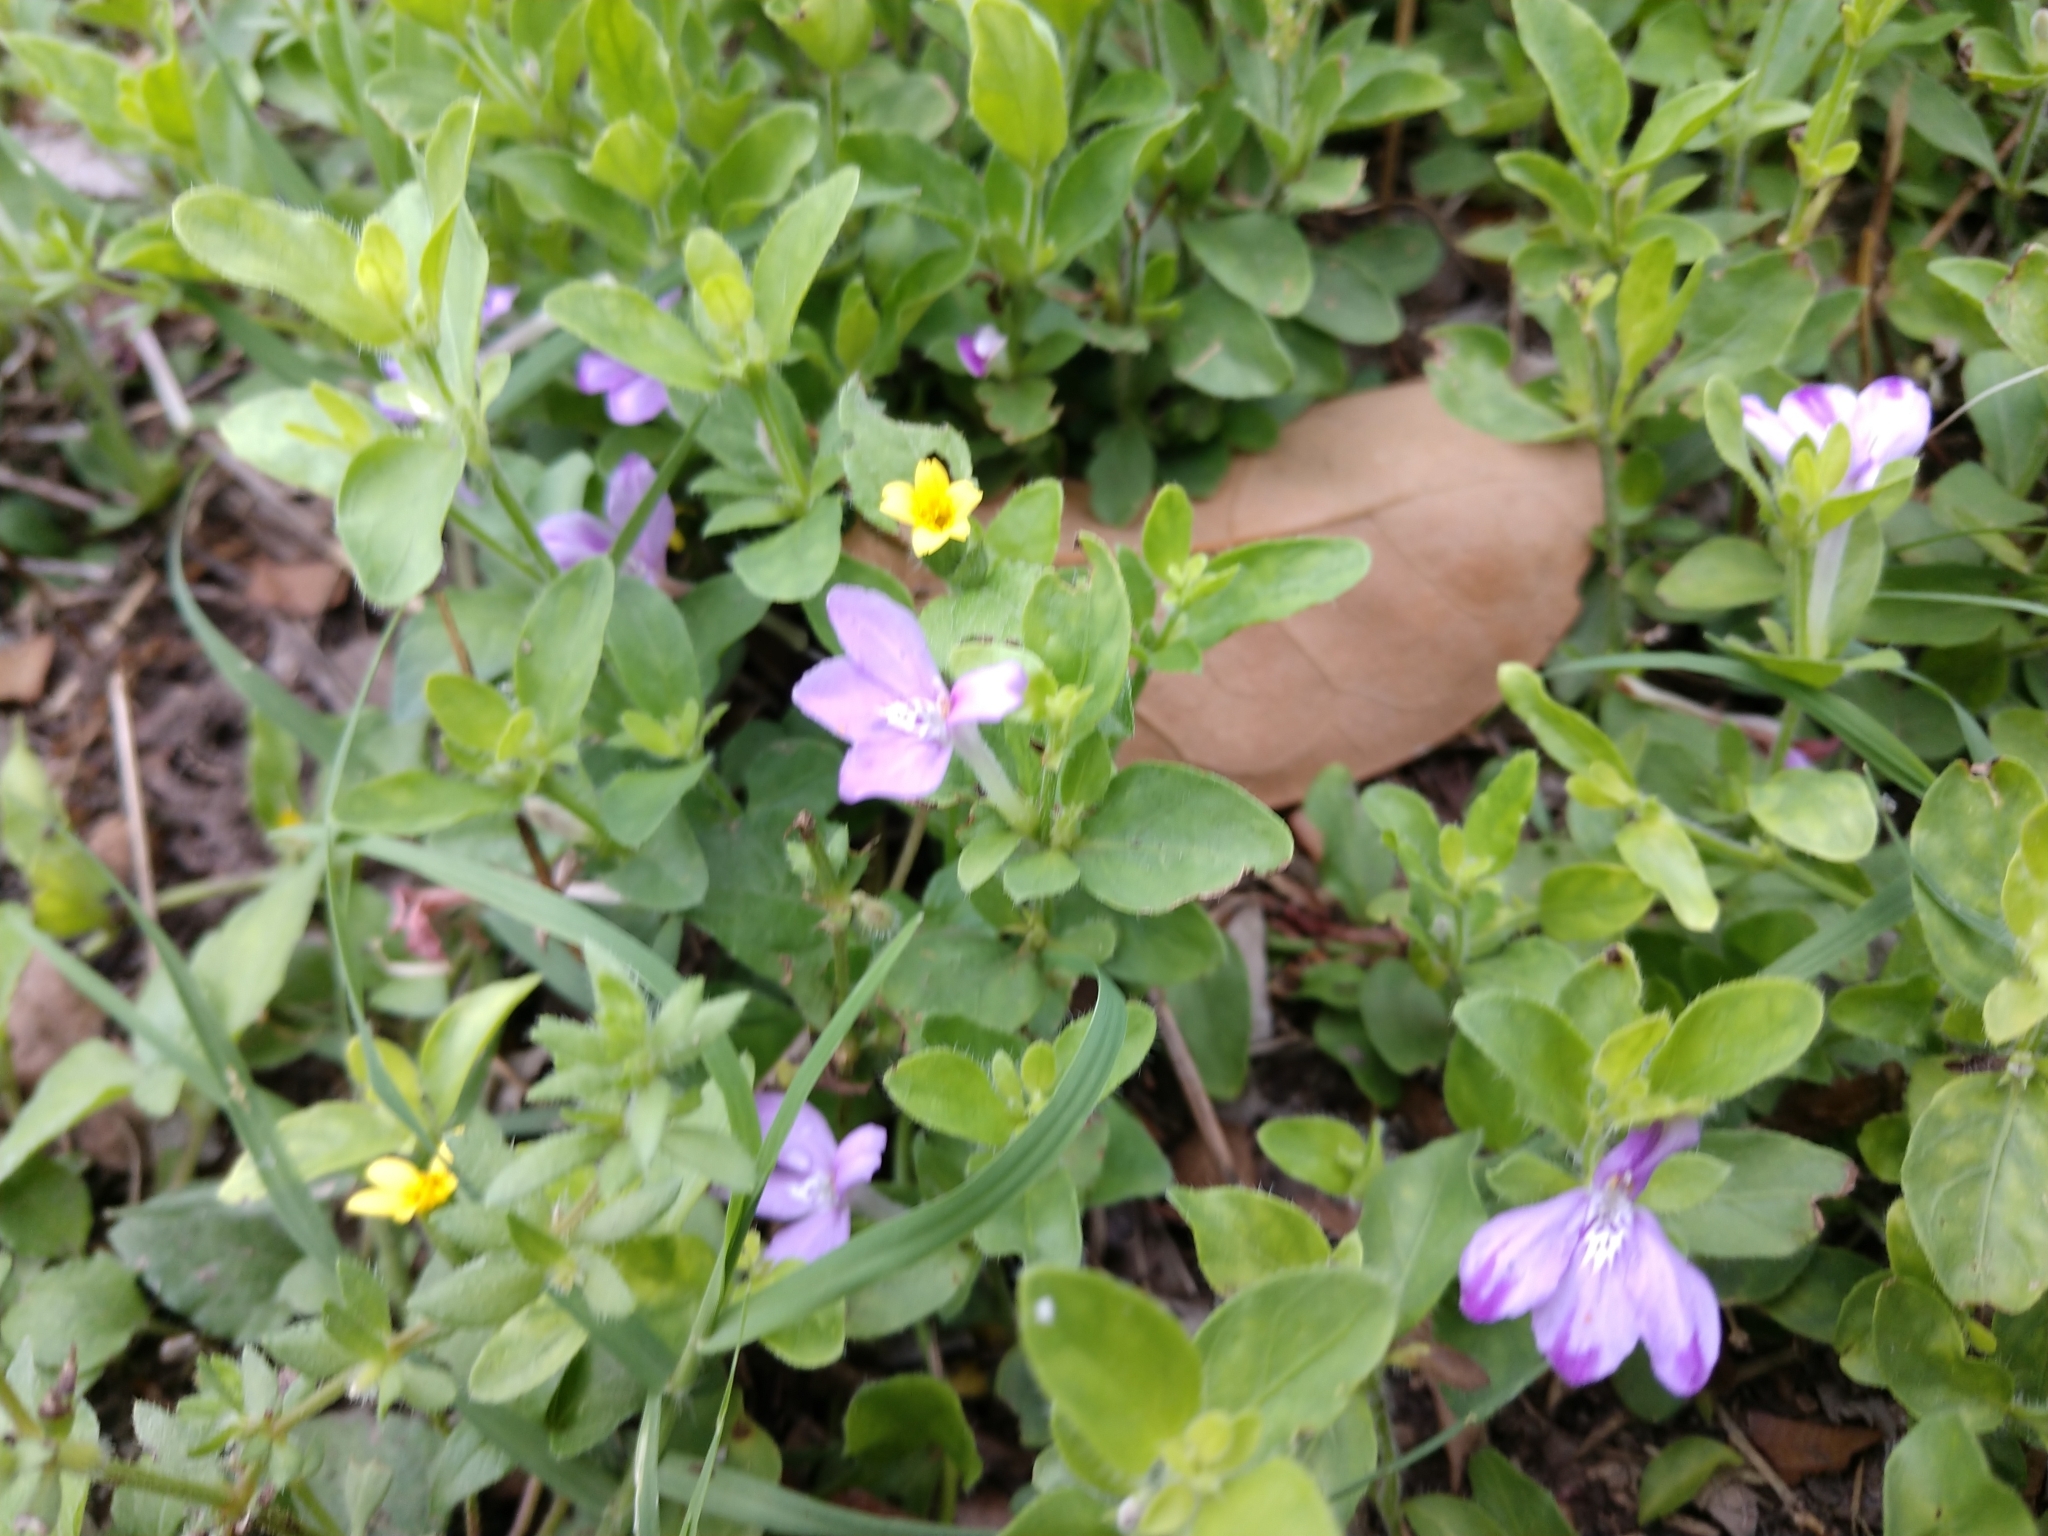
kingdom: Plantae
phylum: Tracheophyta
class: Magnoliopsida
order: Lamiales
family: Acanthaceae
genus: Justicia
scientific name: Justicia pilosella
